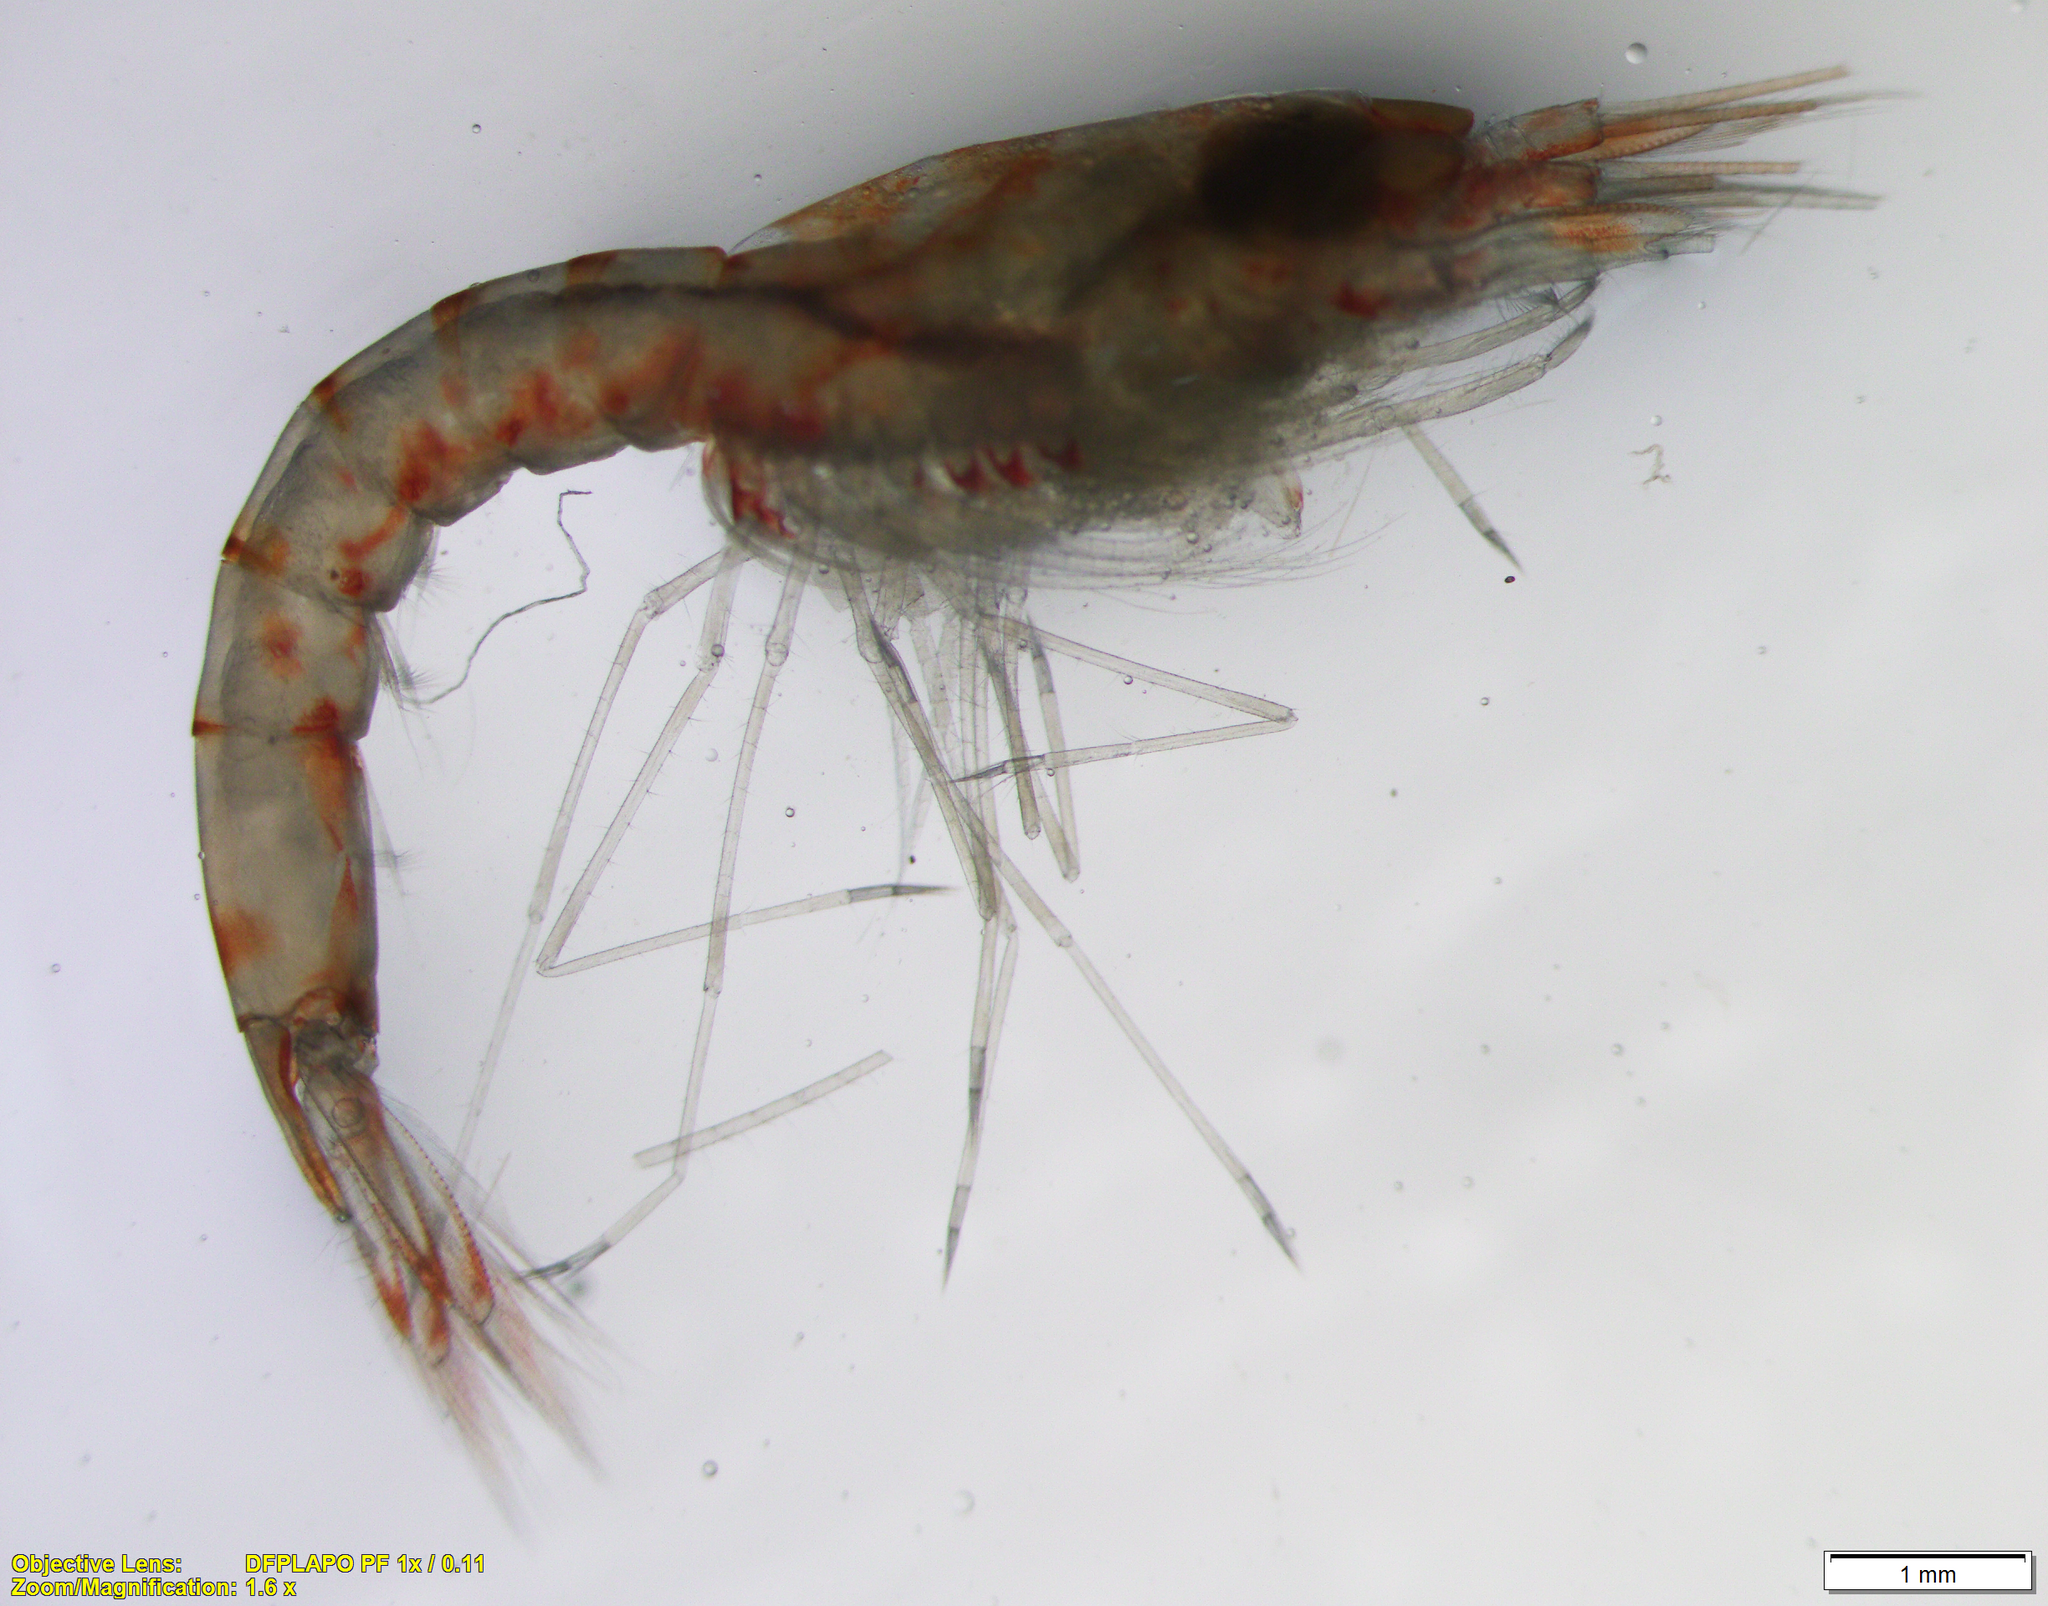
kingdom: Animalia
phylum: Arthropoda
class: Malacostraca
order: Mysida
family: Mysidae
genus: Pseudomma
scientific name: Pseudomma truncatum
